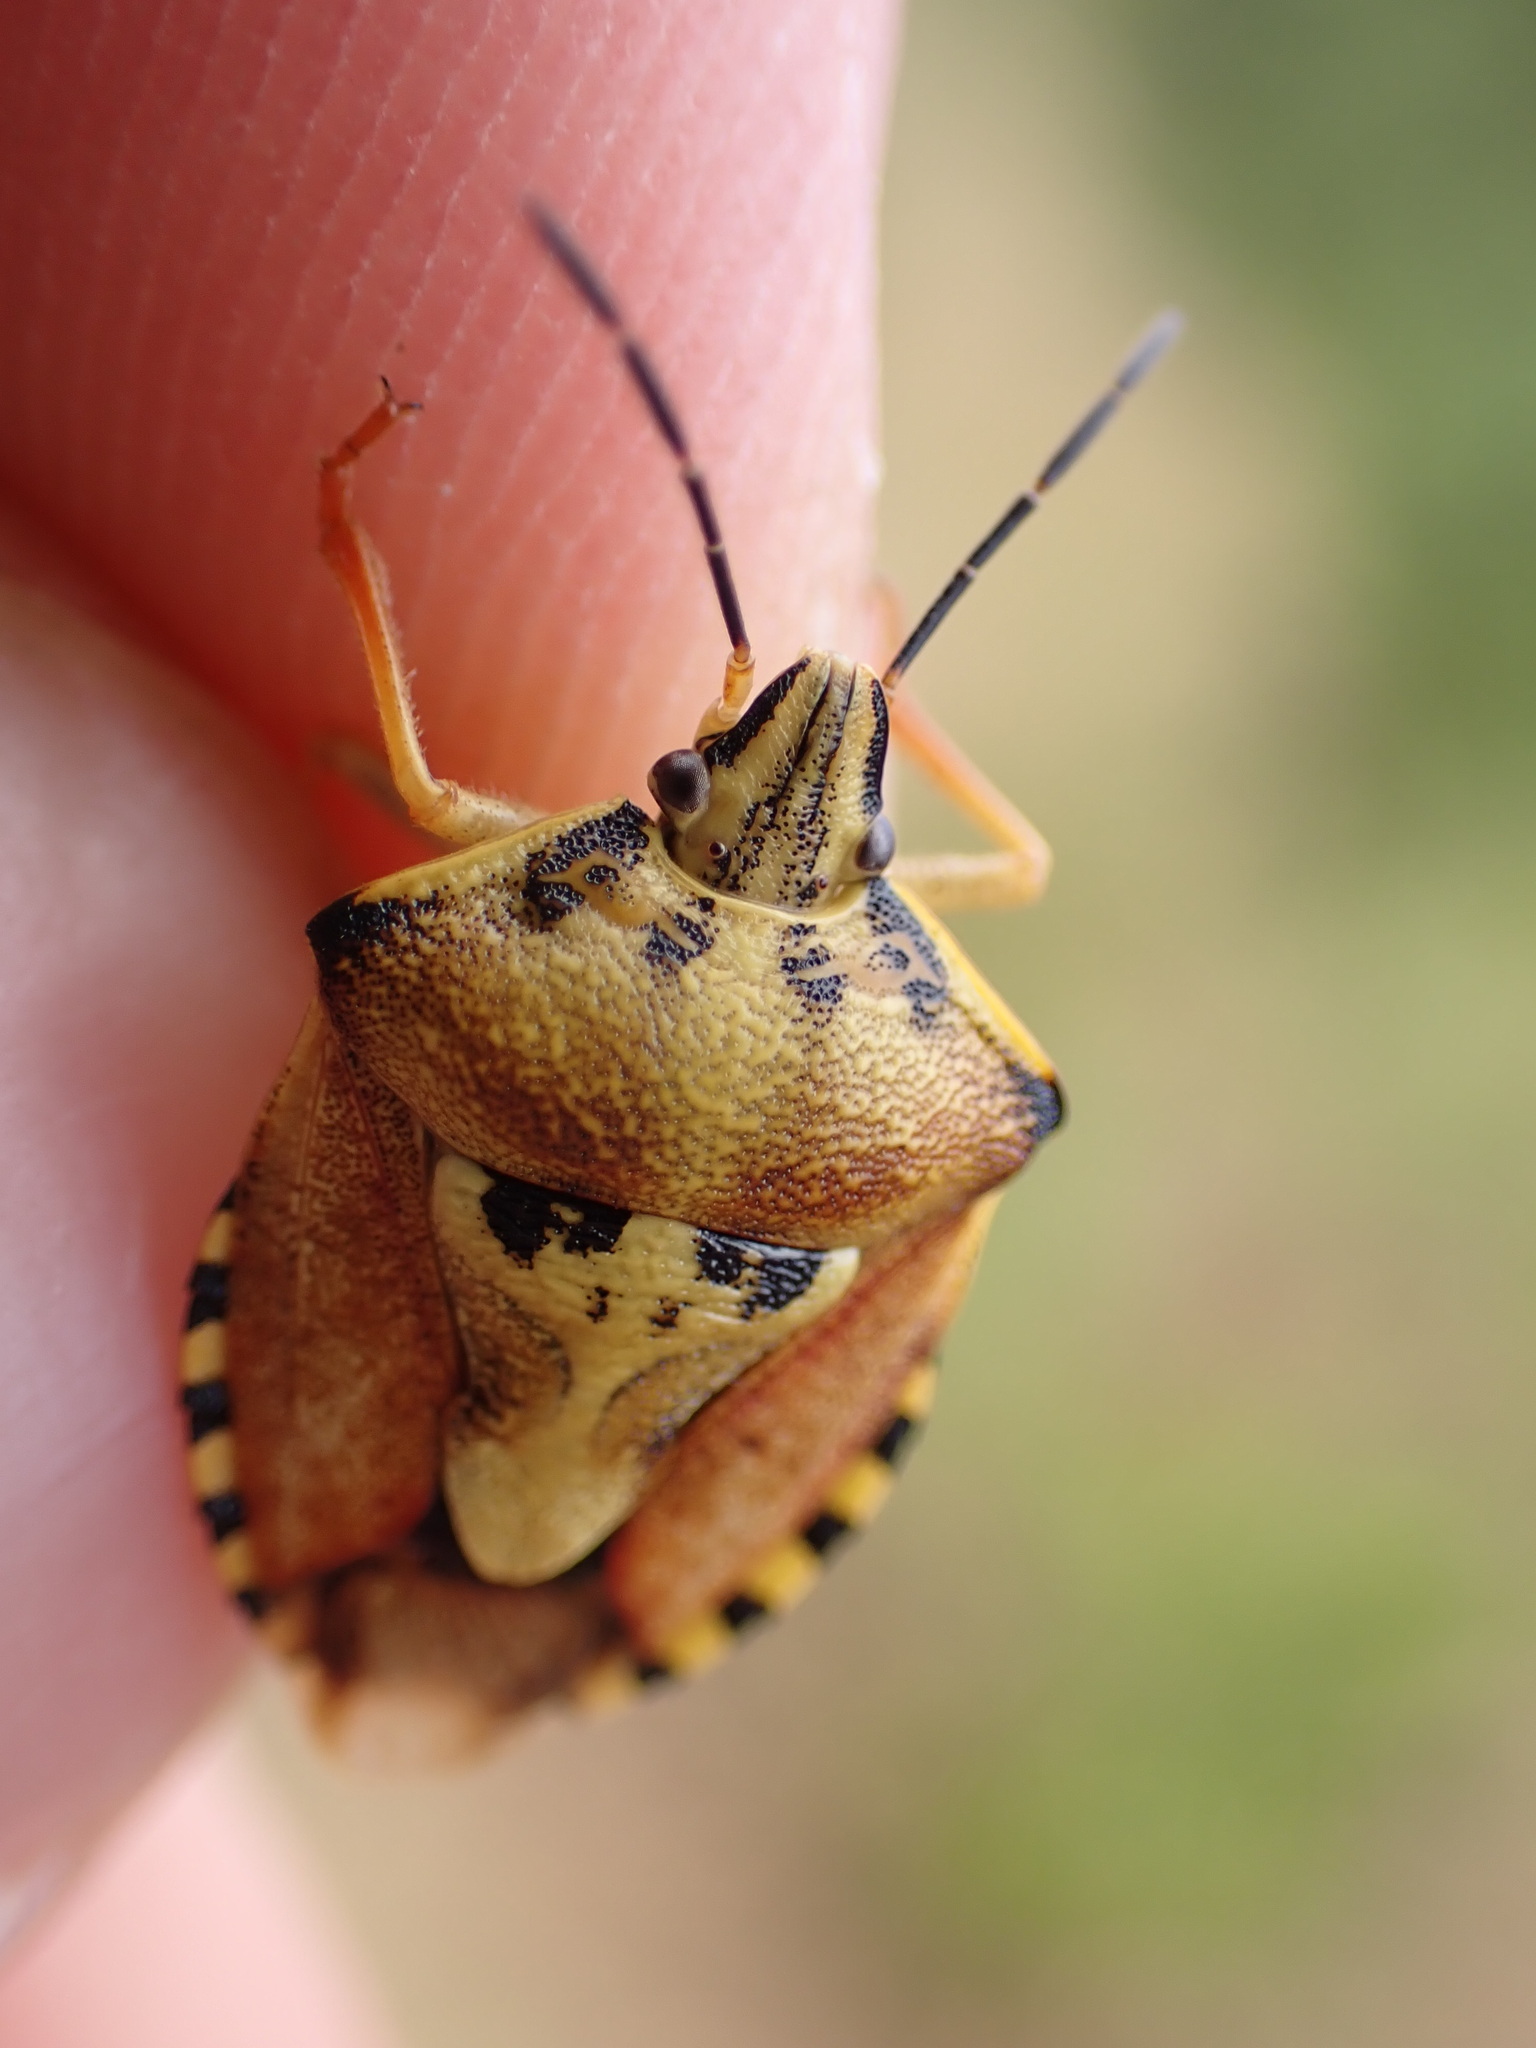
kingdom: Animalia
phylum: Arthropoda
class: Insecta
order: Hemiptera
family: Pentatomidae
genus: Carpocoris
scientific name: Carpocoris purpureipennis
